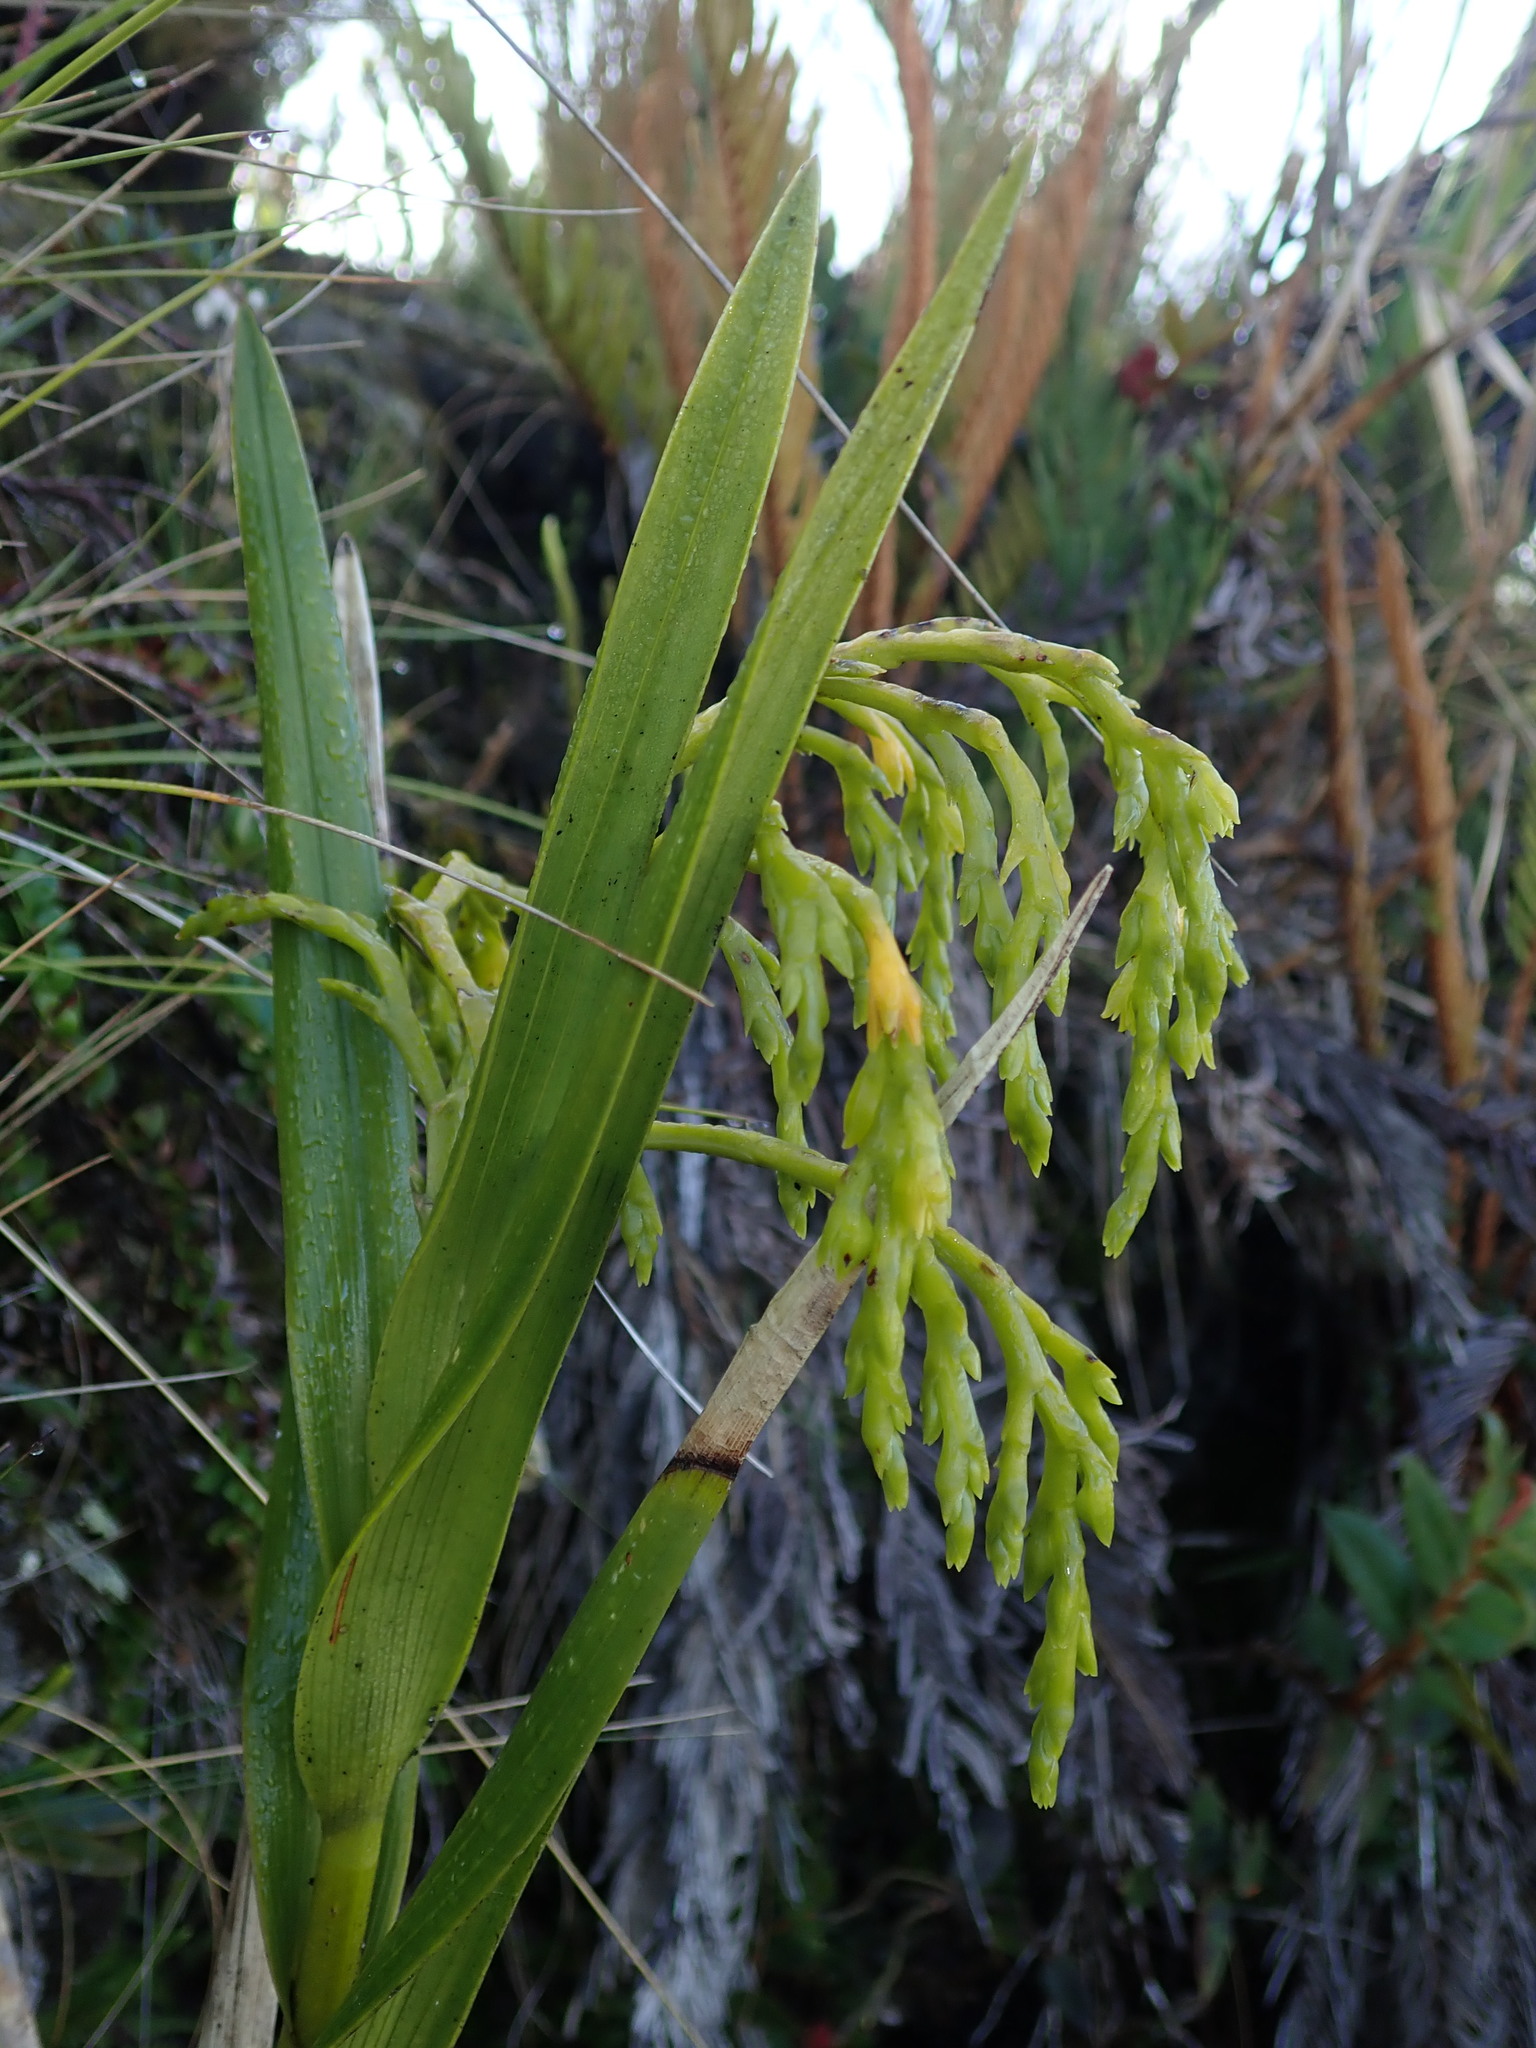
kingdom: Plantae
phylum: Tracheophyta
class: Liliopsida
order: Asparagales
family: Orchidaceae
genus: Epidendrum
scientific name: Epidendrum frutex
